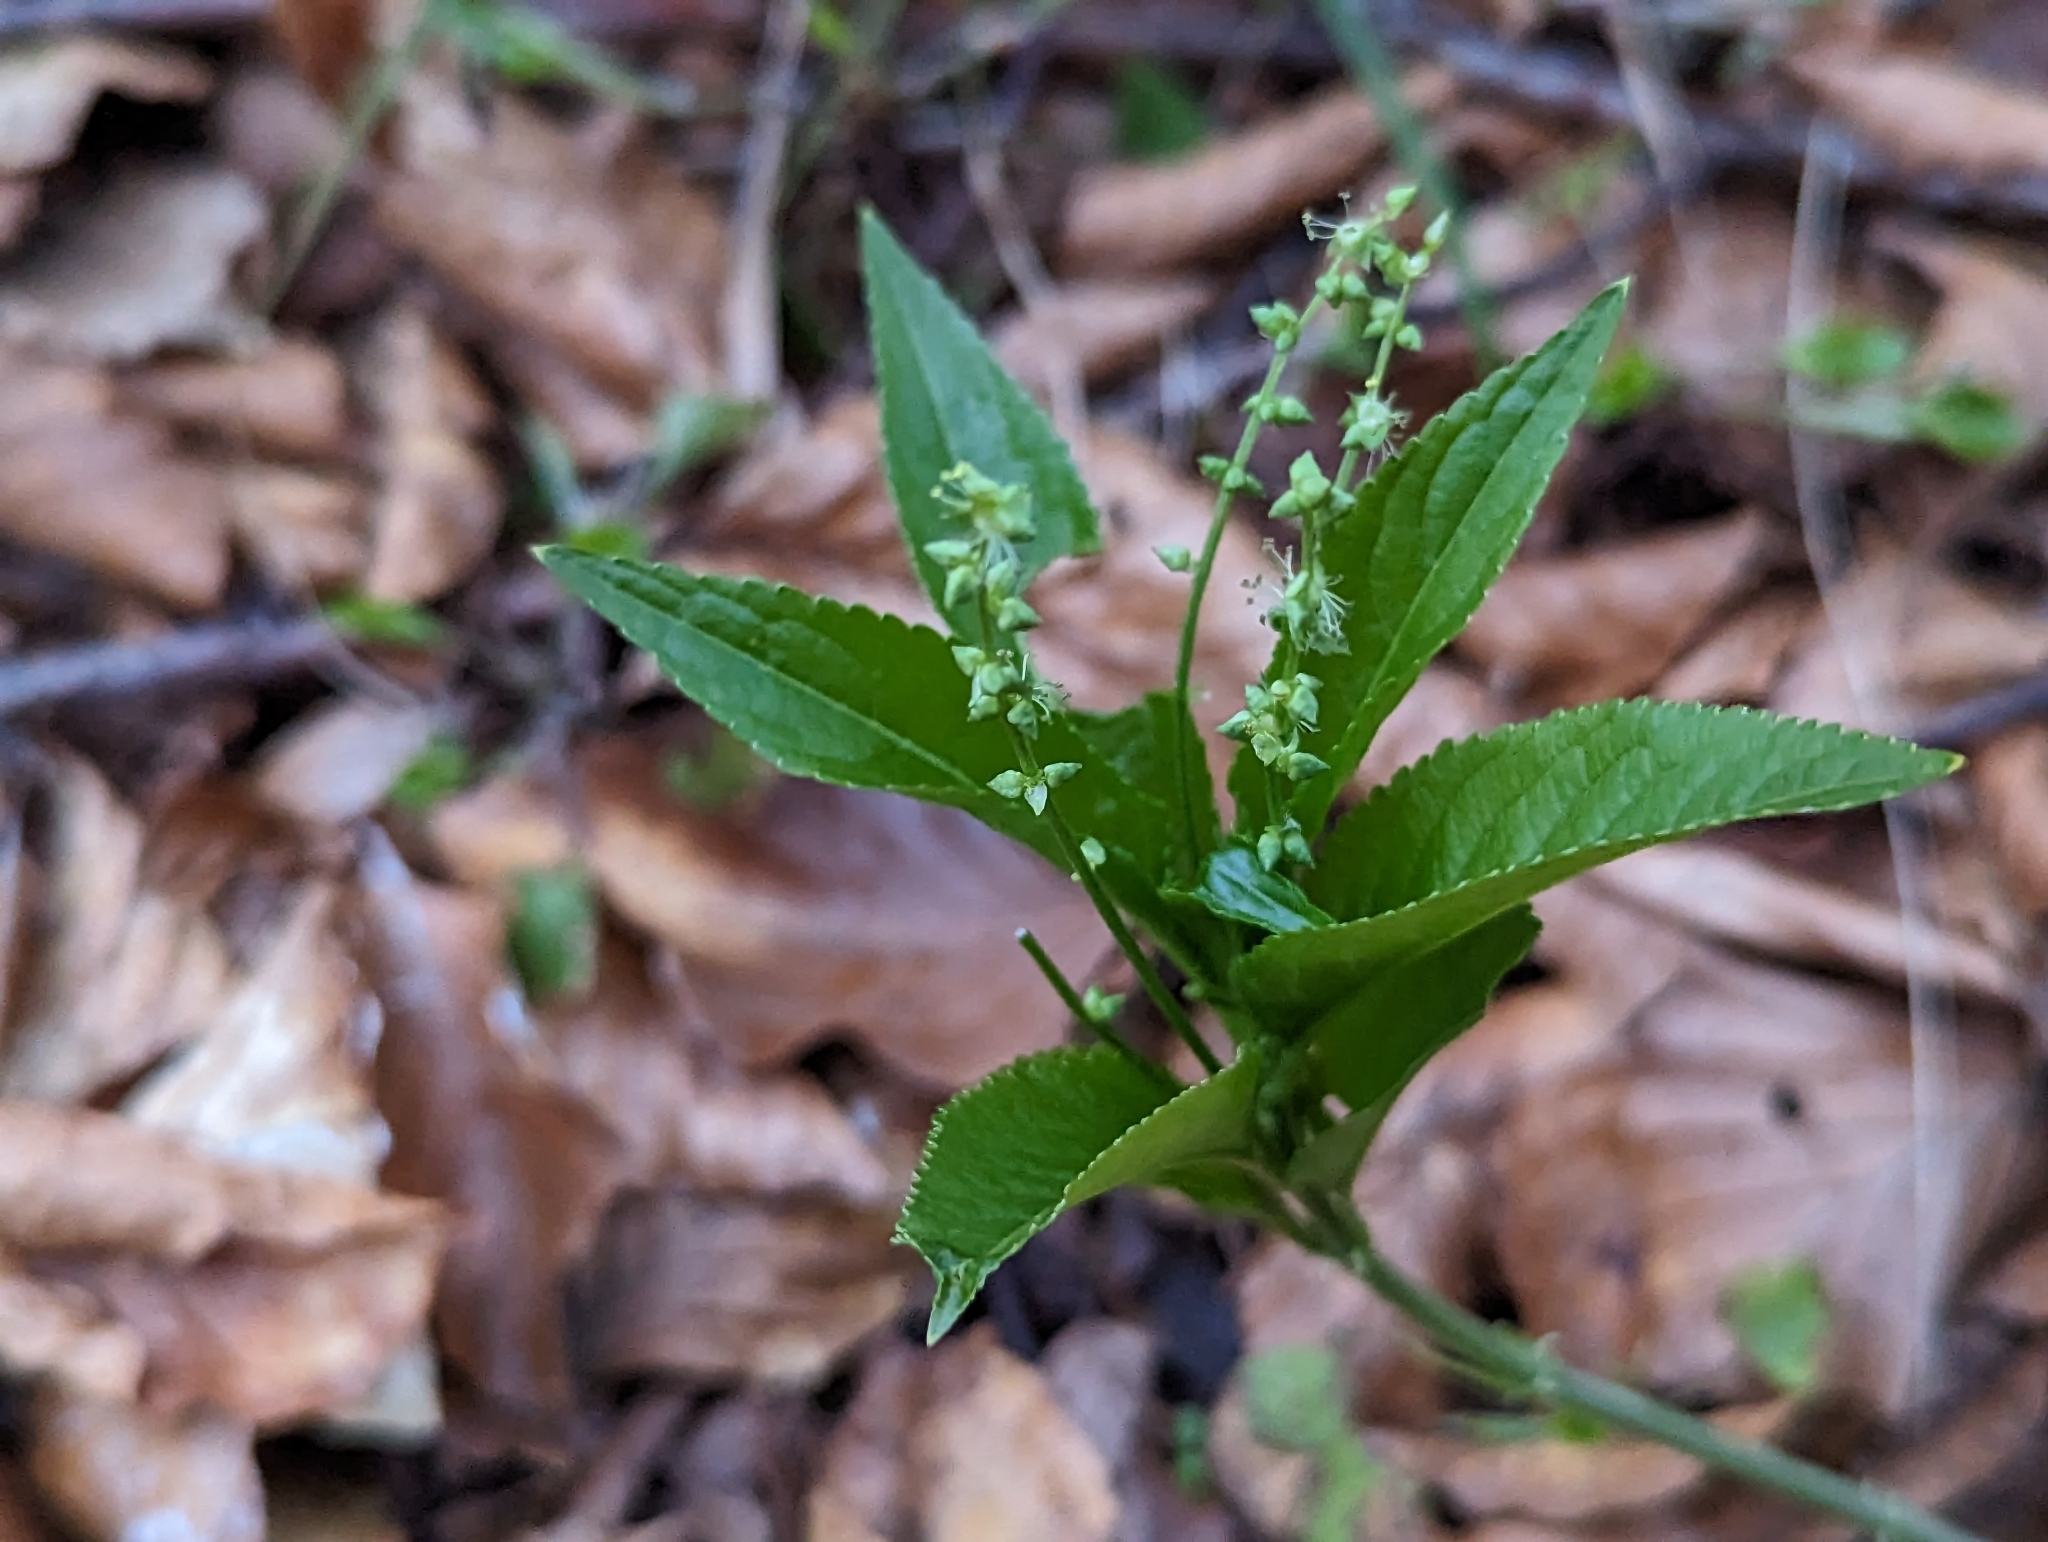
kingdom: Plantae
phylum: Tracheophyta
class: Magnoliopsida
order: Malpighiales
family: Euphorbiaceae
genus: Mercurialis
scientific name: Mercurialis perennis
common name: Dog mercury
